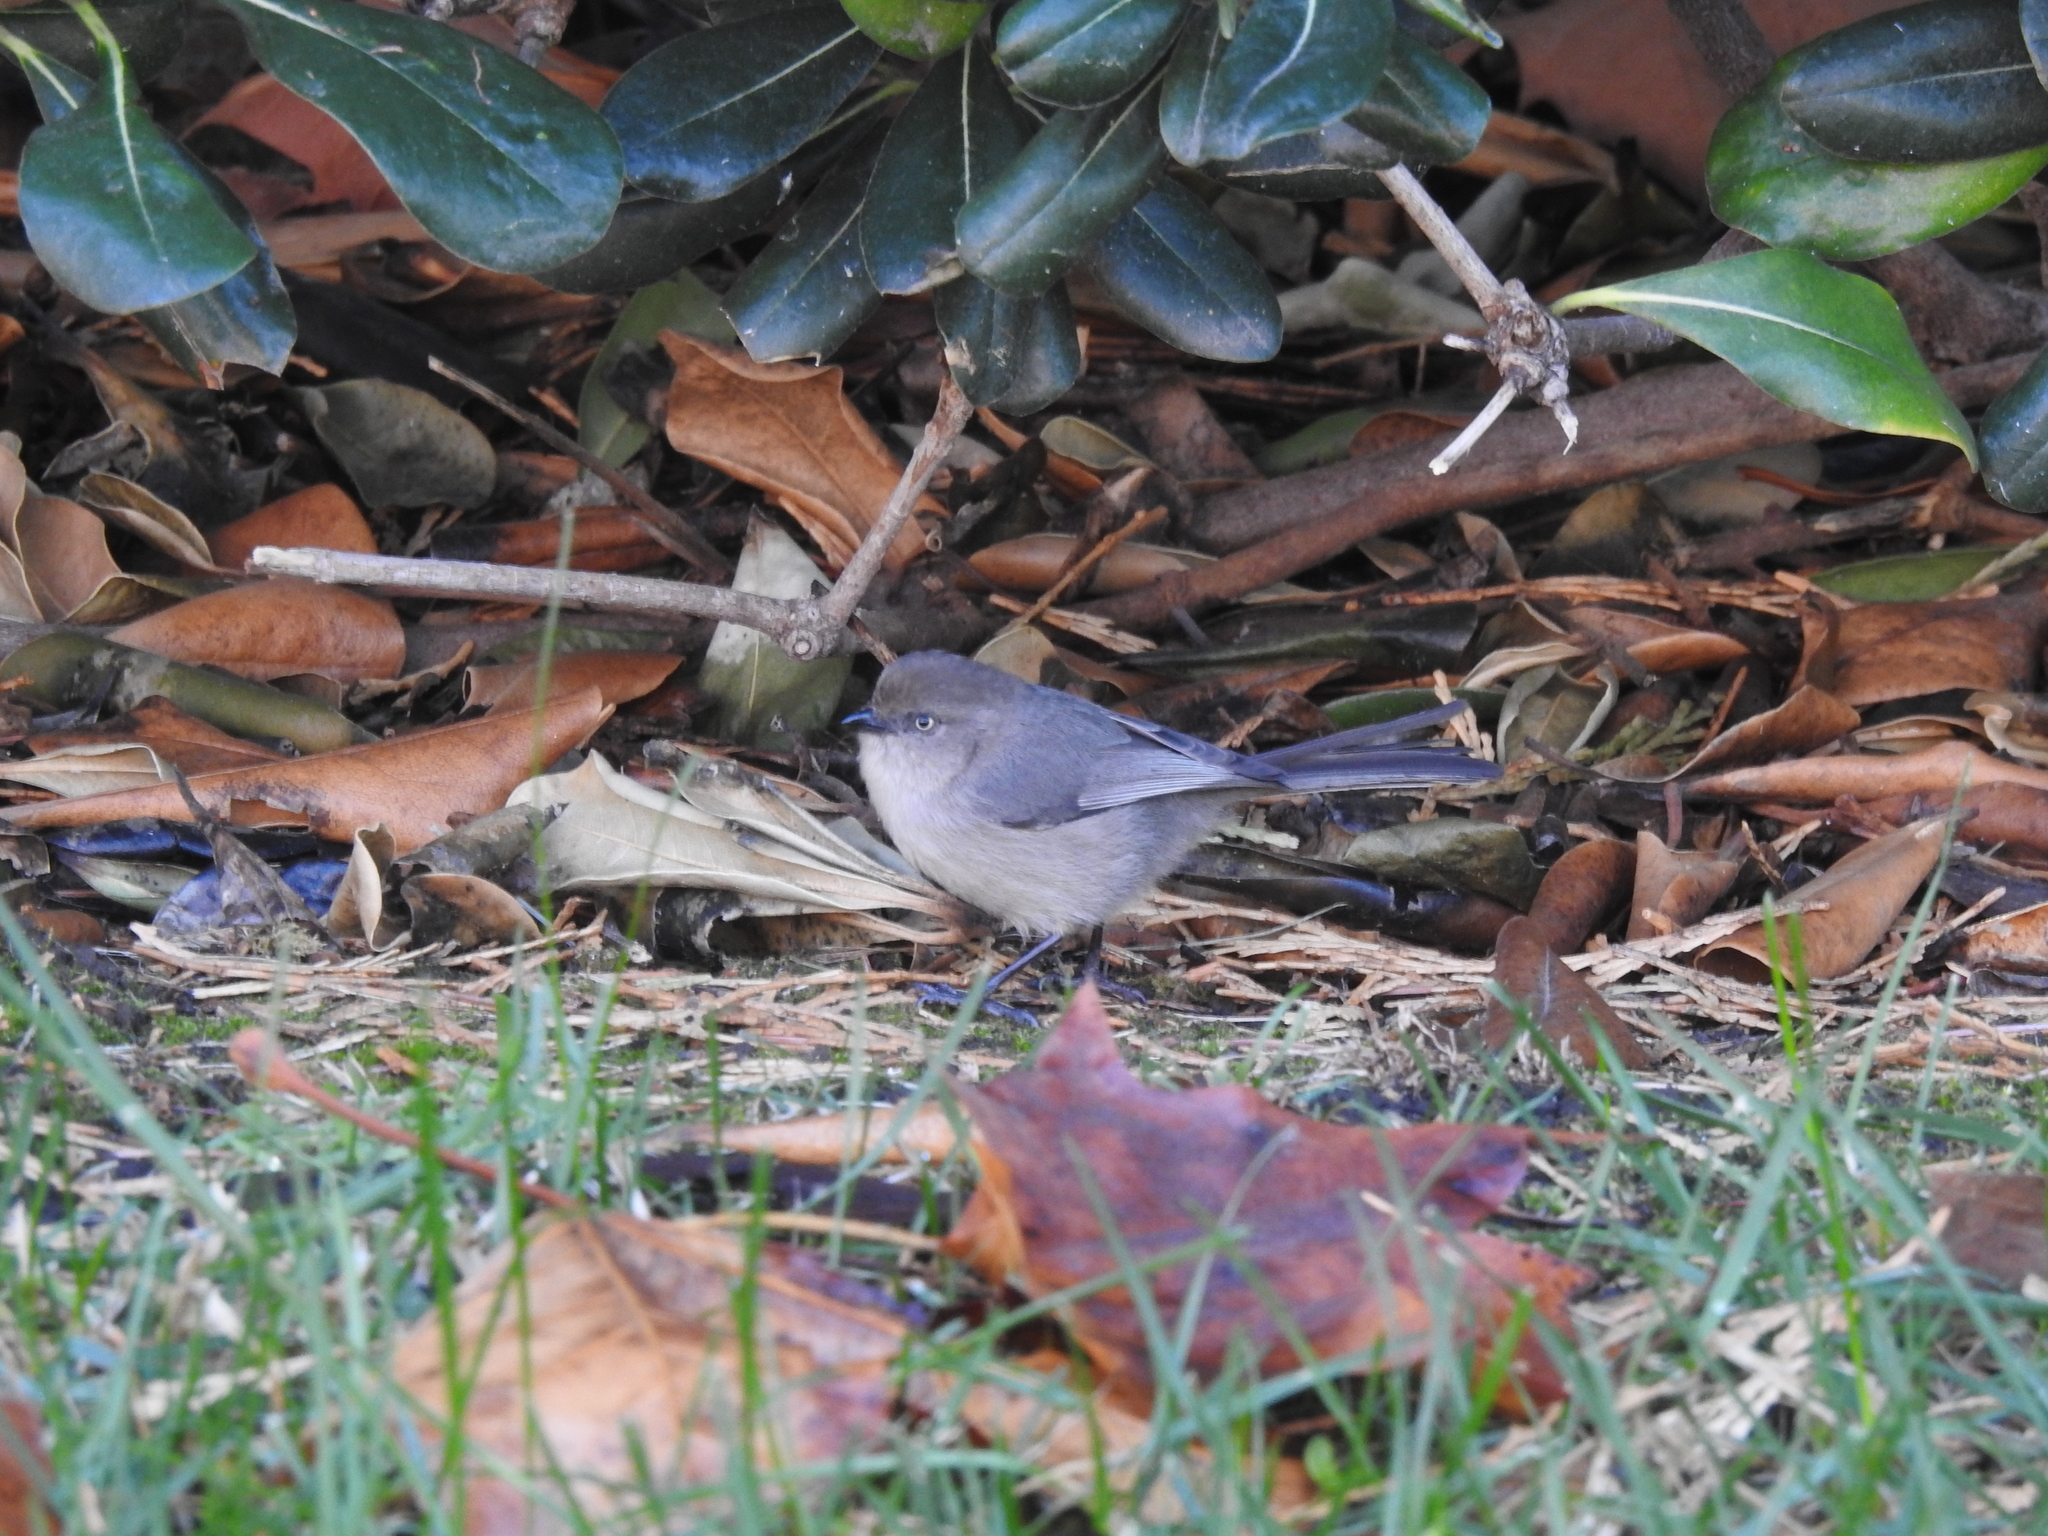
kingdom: Animalia
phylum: Chordata
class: Aves
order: Passeriformes
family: Aegithalidae
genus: Psaltriparus
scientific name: Psaltriparus minimus
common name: American bushtit
